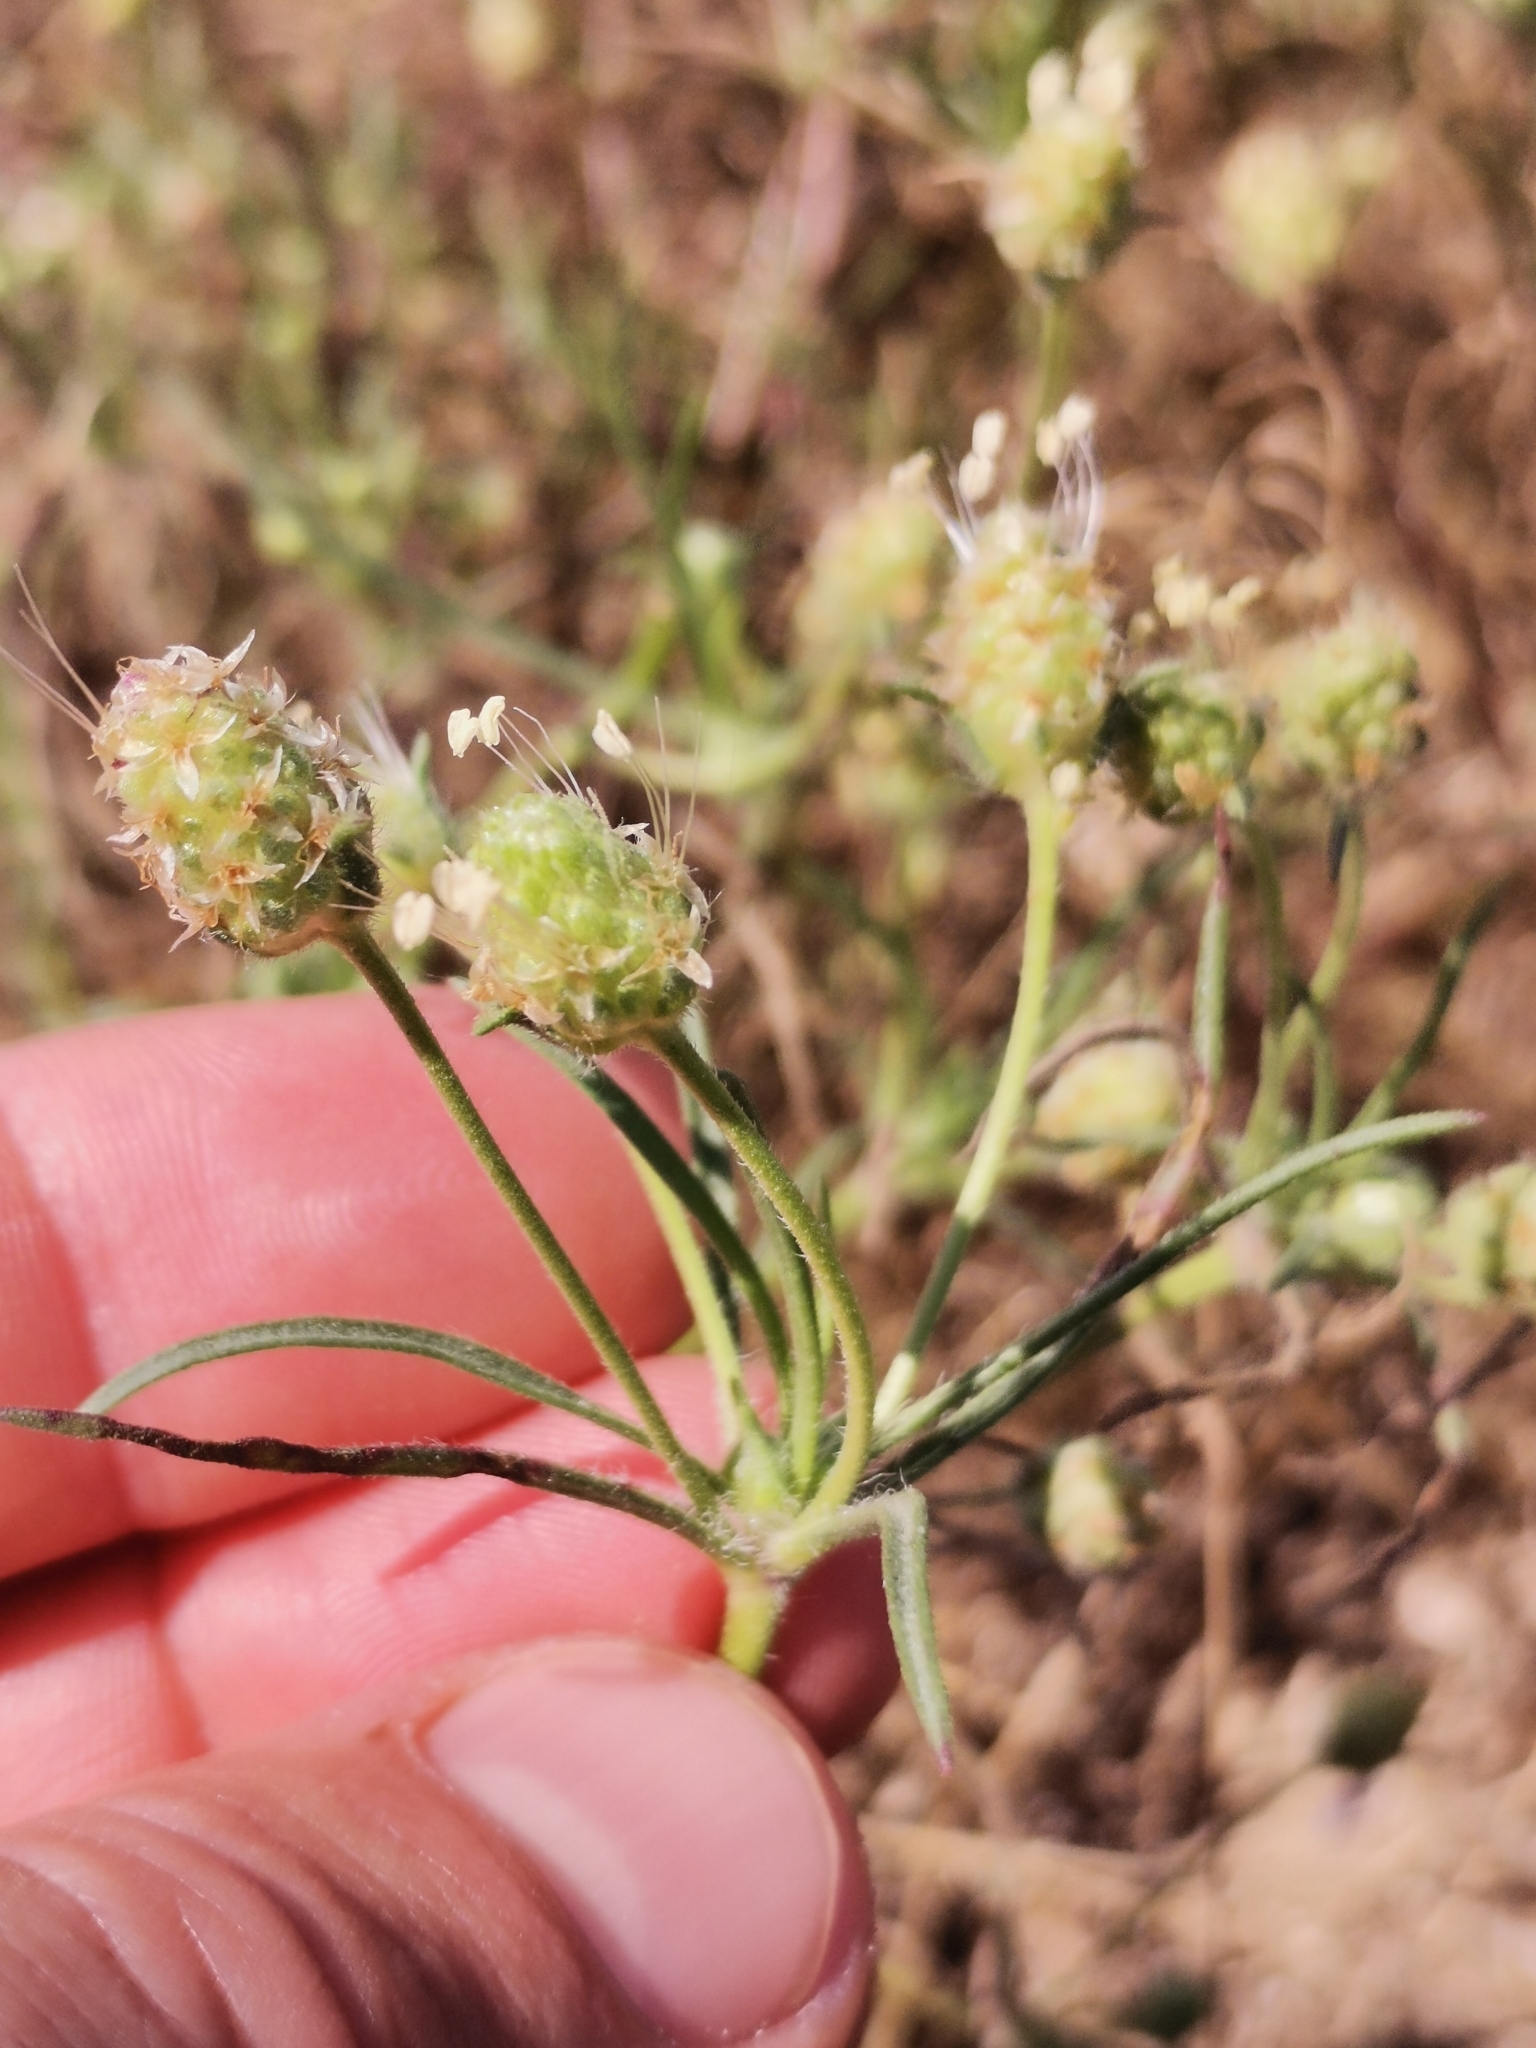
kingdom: Plantae
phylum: Tracheophyta
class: Magnoliopsida
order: Lamiales
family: Plantaginaceae
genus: Plantago
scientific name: Plantago arenaria
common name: Branched plantain
